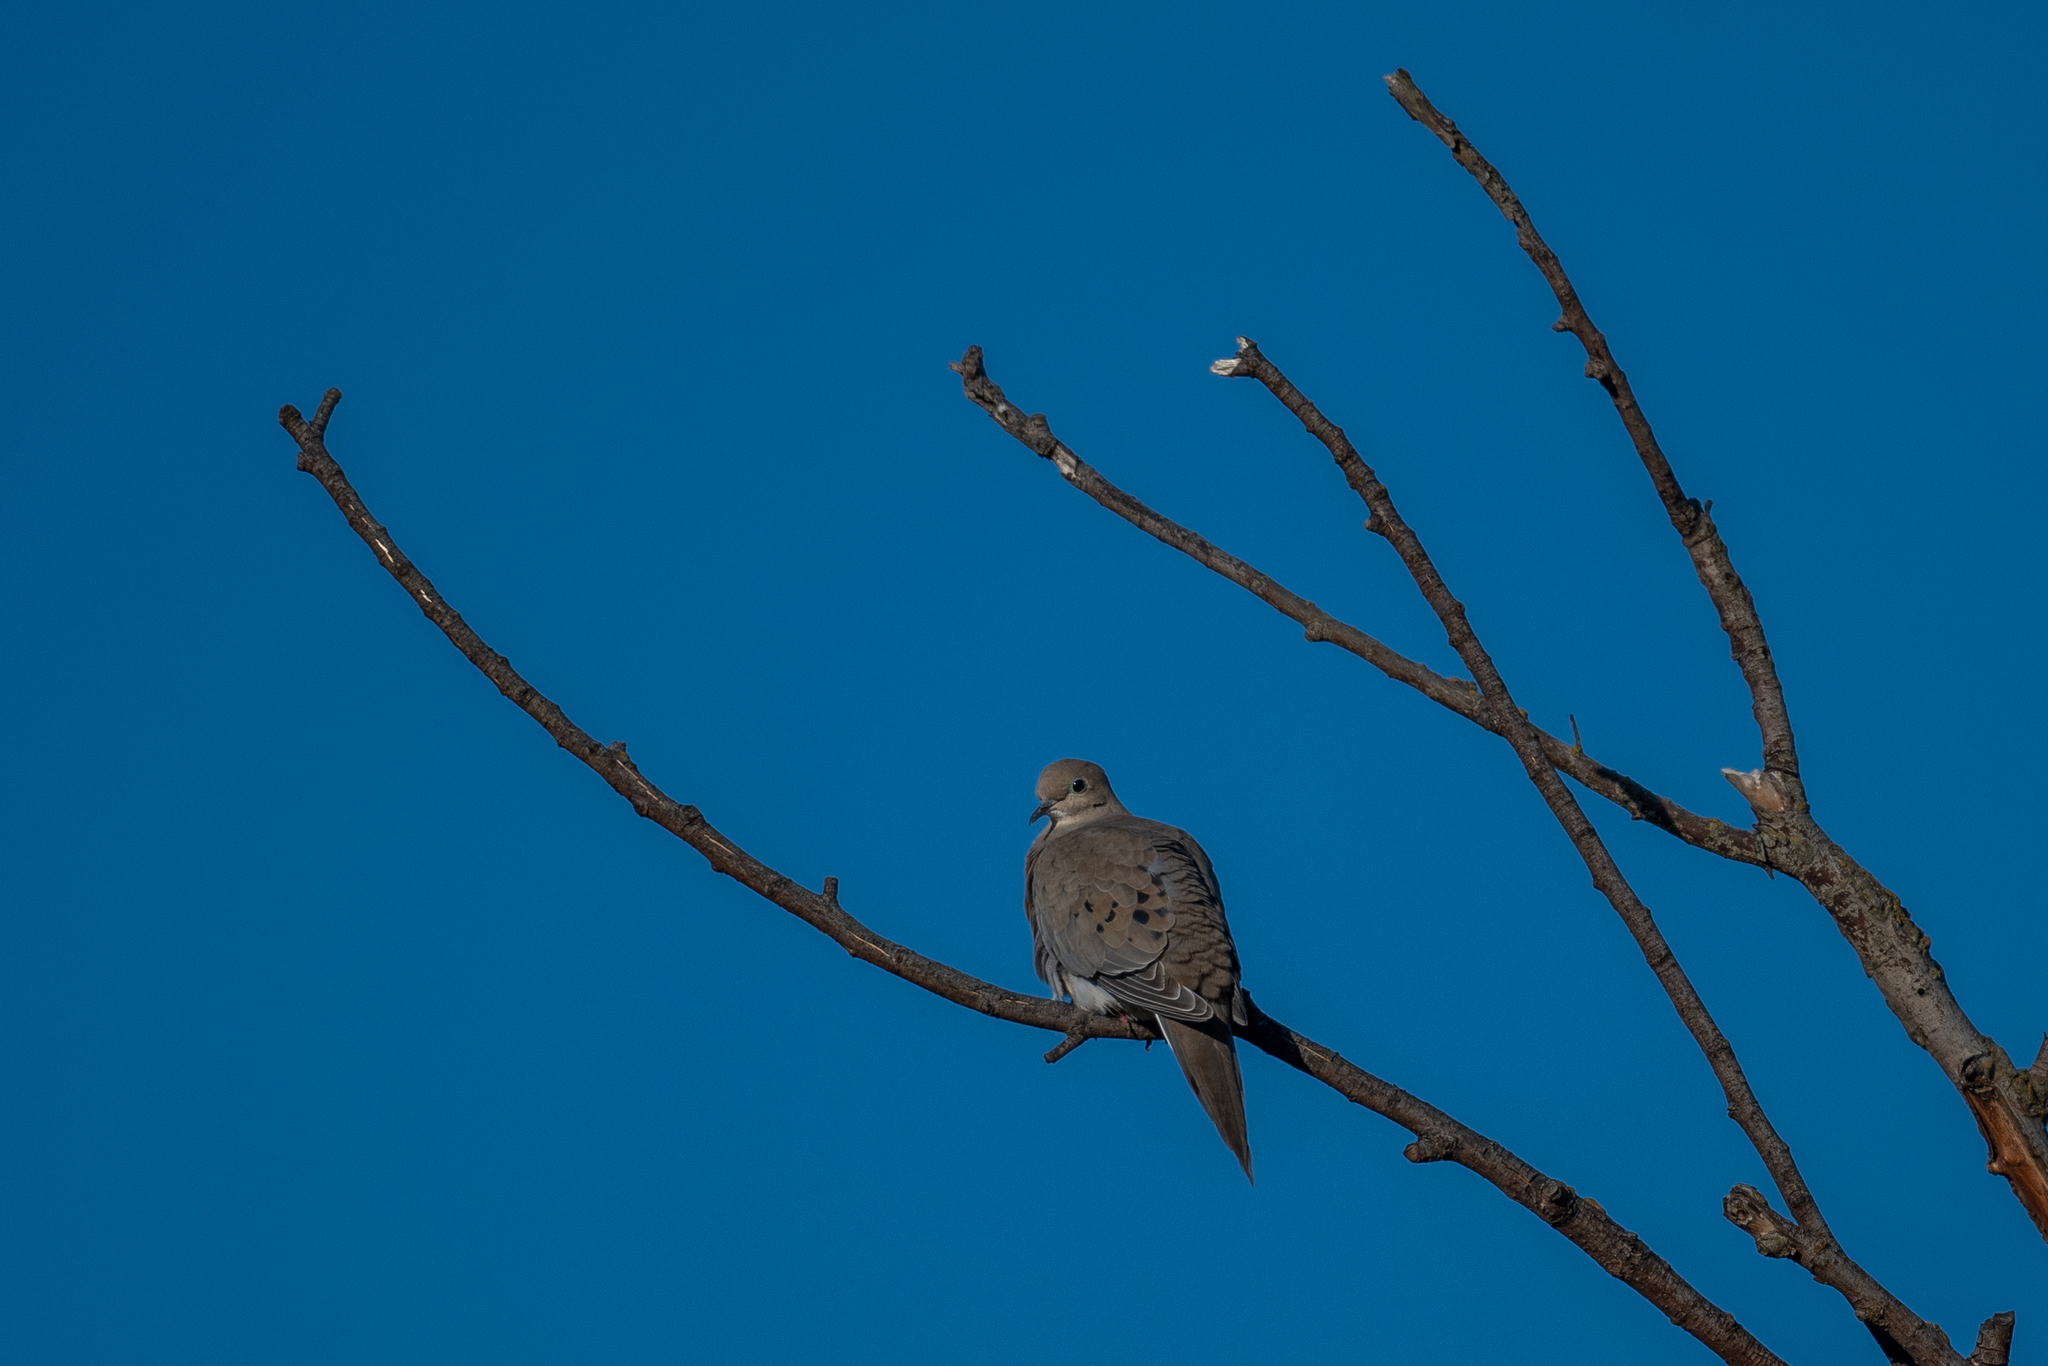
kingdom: Animalia
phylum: Chordata
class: Aves
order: Columbiformes
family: Columbidae
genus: Zenaida
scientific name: Zenaida macroura
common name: Mourning dove
